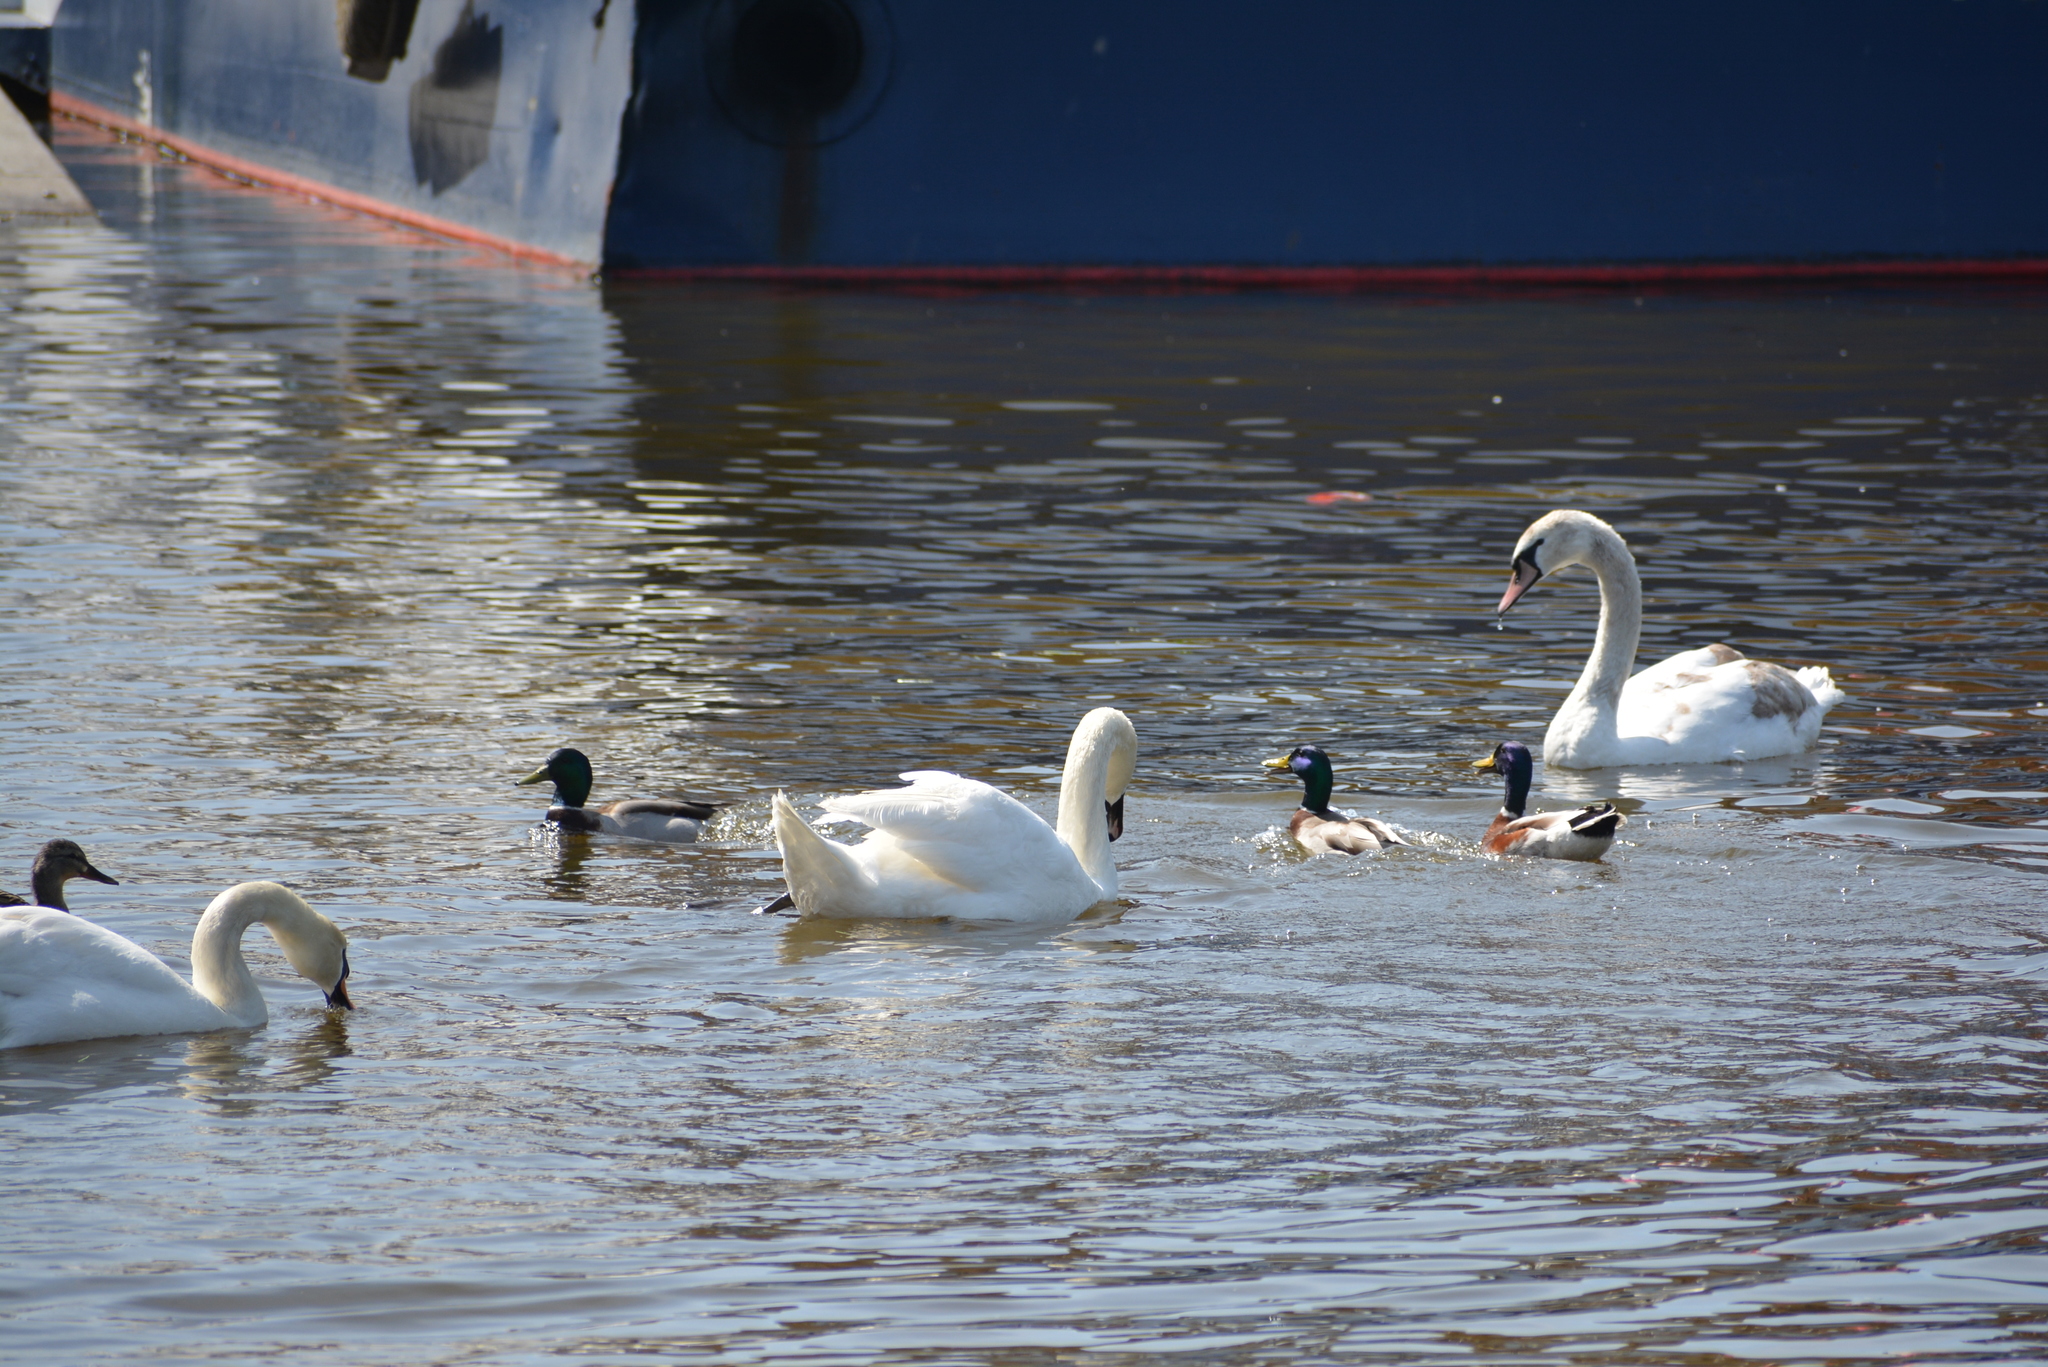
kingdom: Animalia
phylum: Chordata
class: Aves
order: Anseriformes
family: Anatidae
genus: Cygnus
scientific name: Cygnus olor
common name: Mute swan
